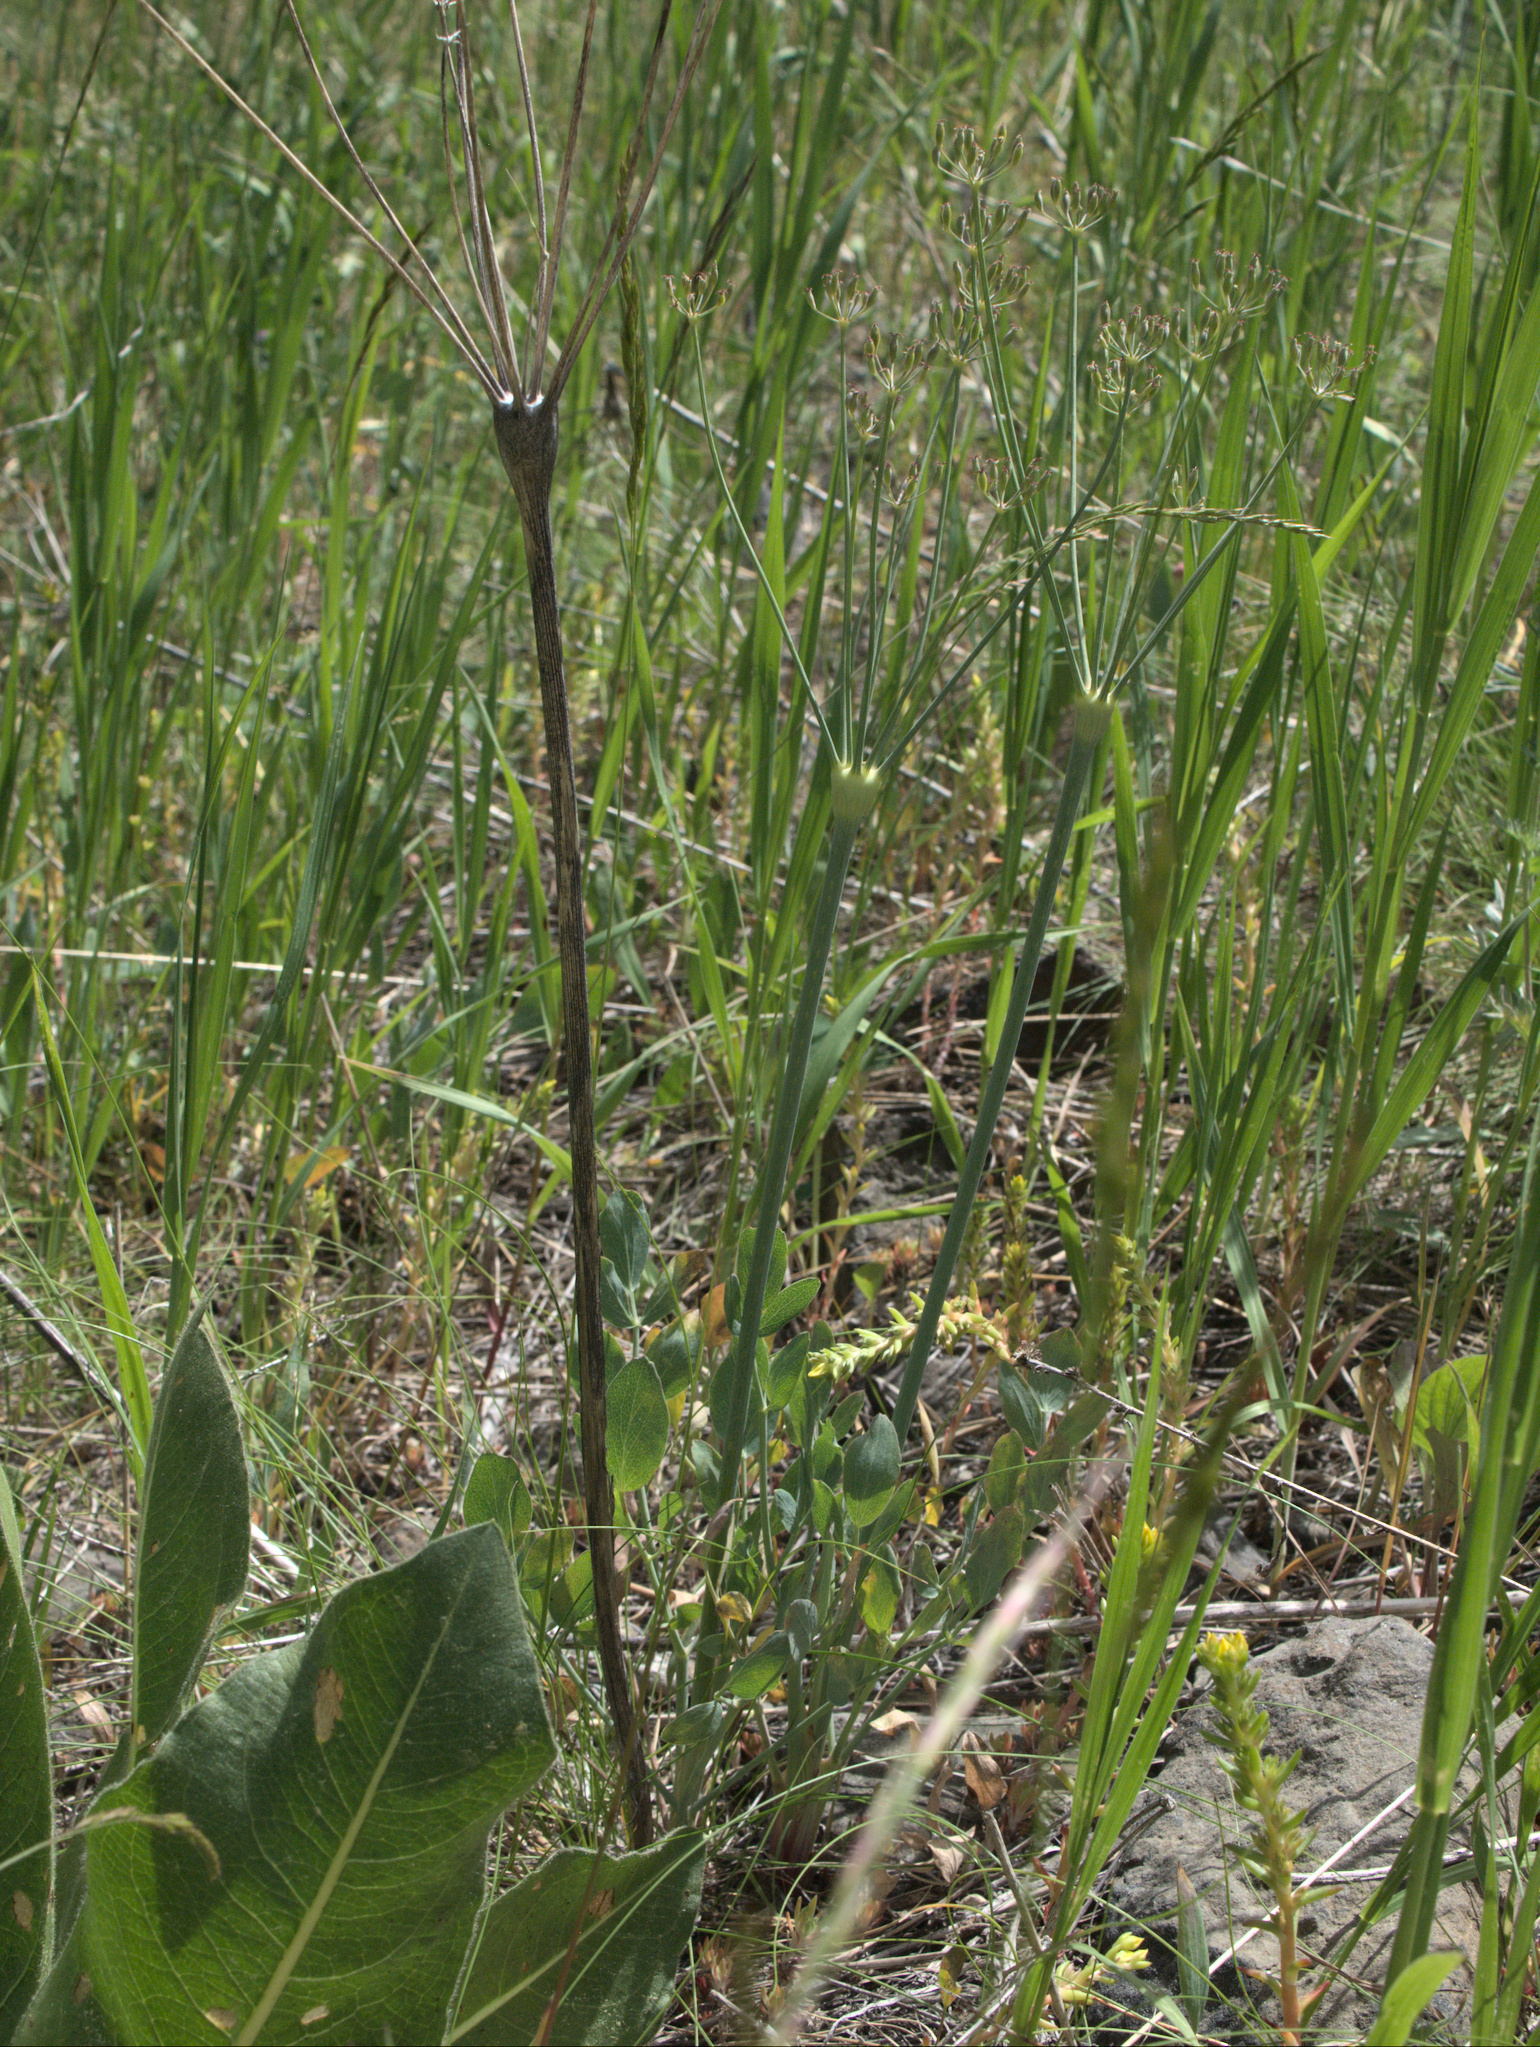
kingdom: Plantae
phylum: Tracheophyta
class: Magnoliopsida
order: Apiales
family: Apiaceae
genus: Lomatium
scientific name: Lomatium nudicaule
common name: Pestle lomatium
